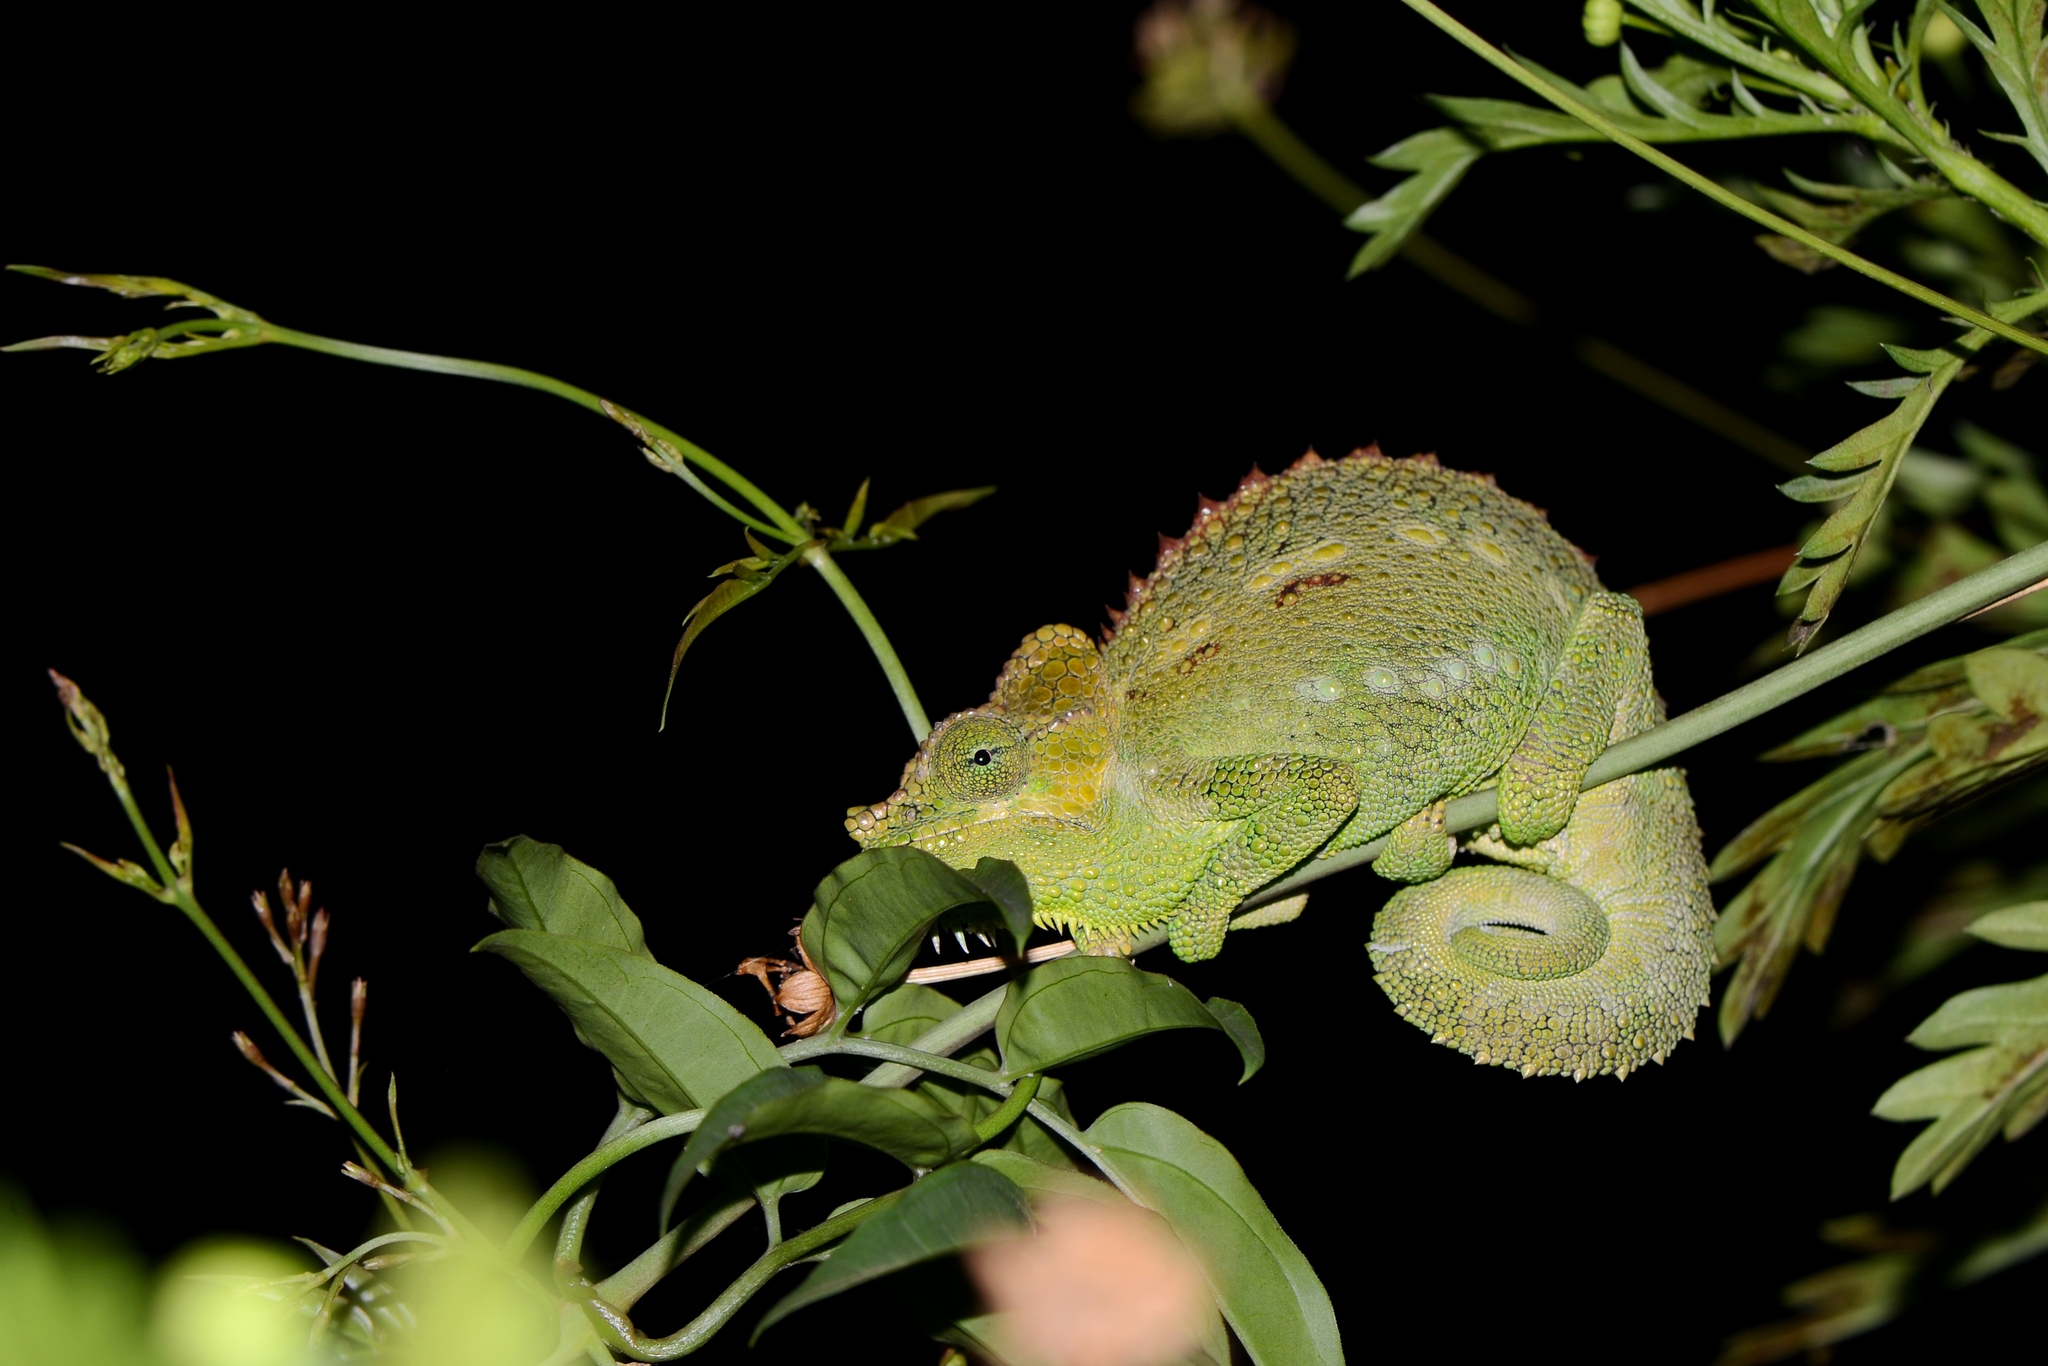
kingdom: Animalia
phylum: Chordata
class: Squamata
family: Chamaeleonidae
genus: Trioceros
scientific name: Trioceros hoehnelii
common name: High-casqued chameleon
